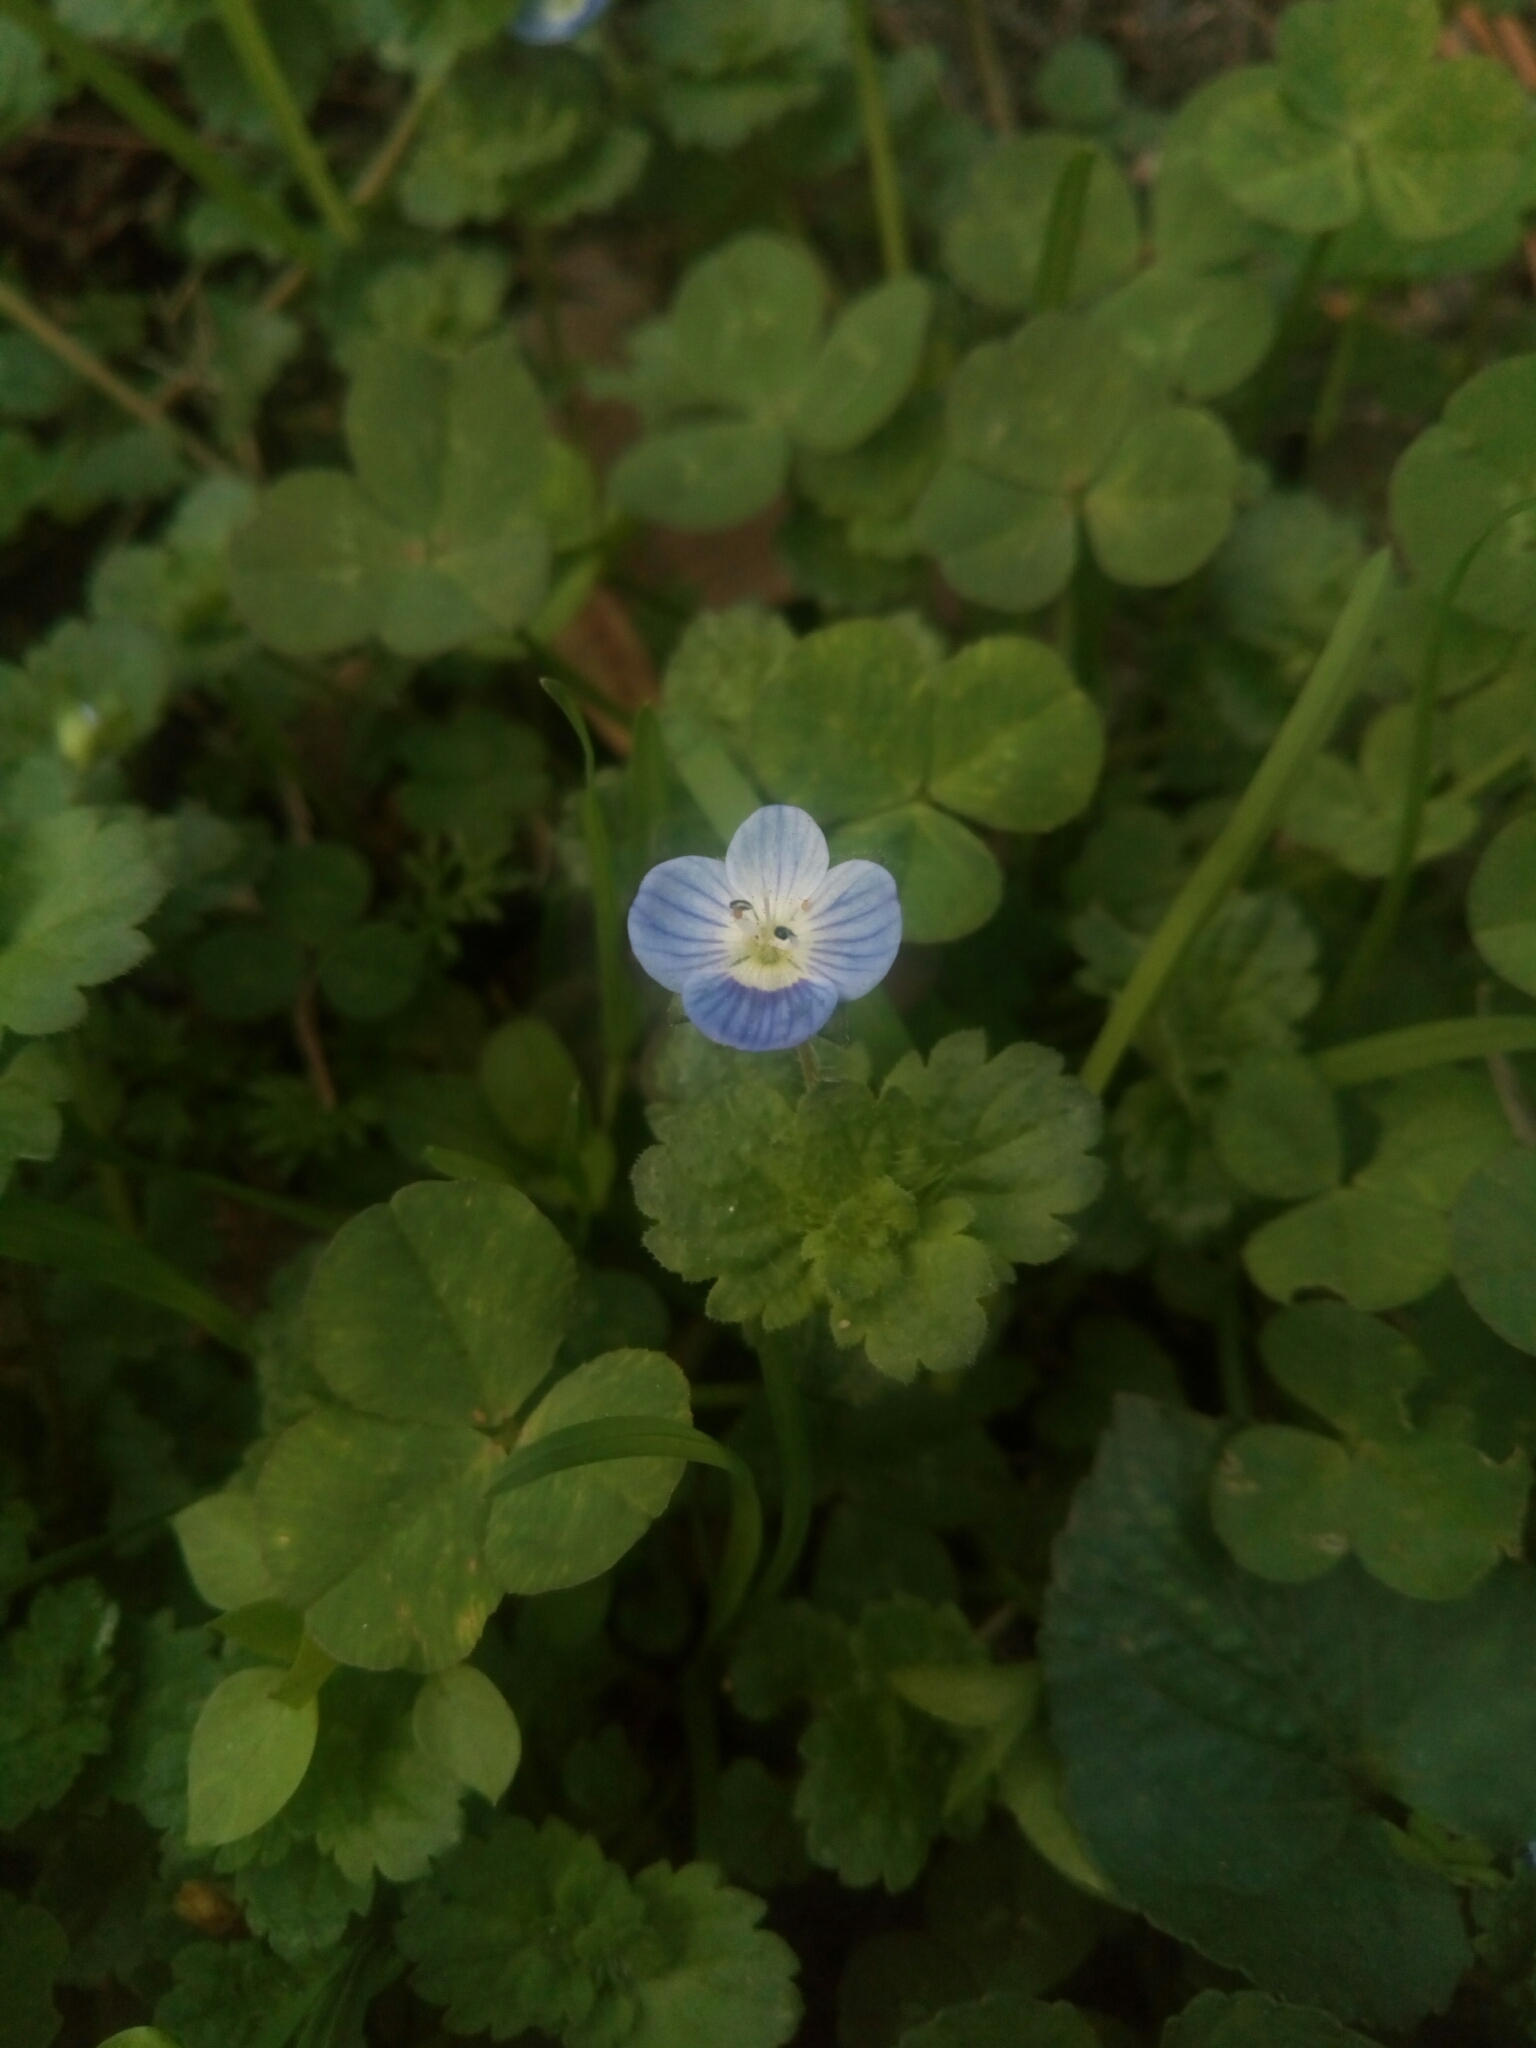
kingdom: Plantae
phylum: Tracheophyta
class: Magnoliopsida
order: Lamiales
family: Plantaginaceae
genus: Veronica
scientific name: Veronica persica
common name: Common field-speedwell
